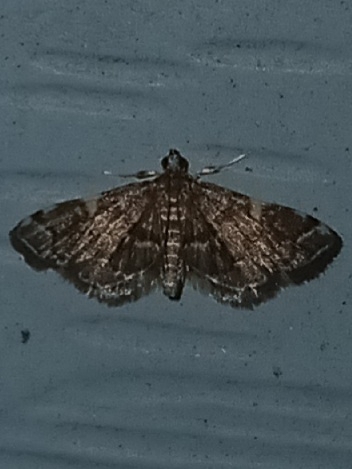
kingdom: Animalia
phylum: Arthropoda
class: Insecta
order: Lepidoptera
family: Crambidae
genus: Anageshna
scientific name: Anageshna primordialis
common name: Yellow-spotted webworm moth
